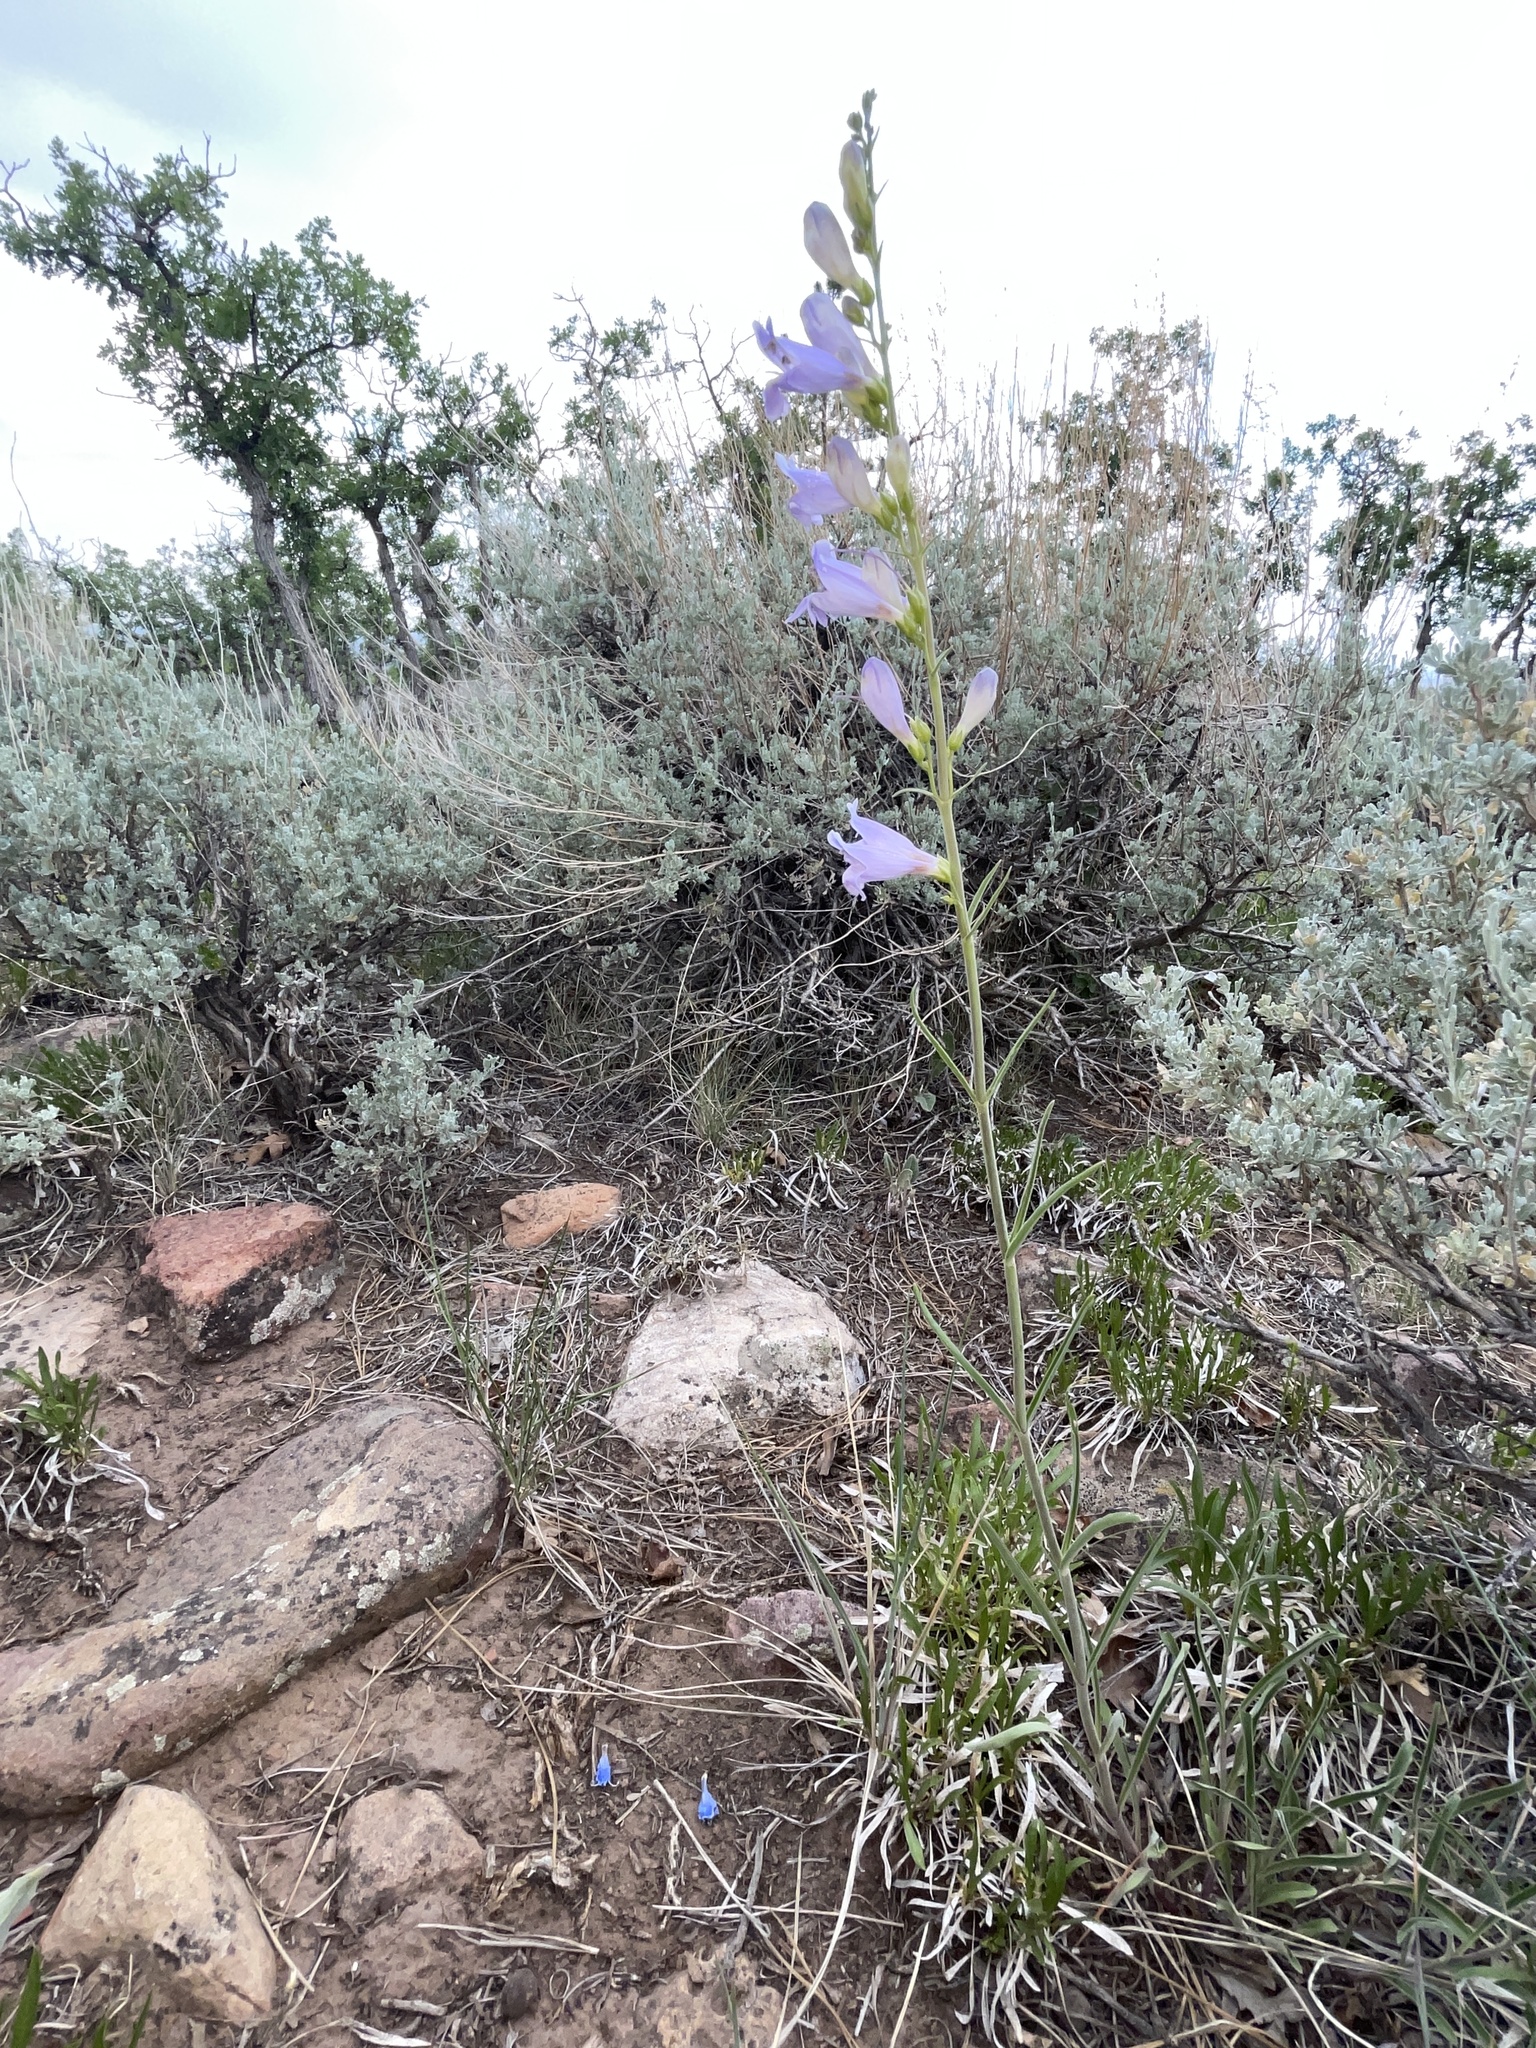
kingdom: Plantae
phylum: Tracheophyta
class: Magnoliopsida
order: Lamiales
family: Plantaginaceae
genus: Penstemon
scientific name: Penstemon comarrhenus
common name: Dusty penstemon
